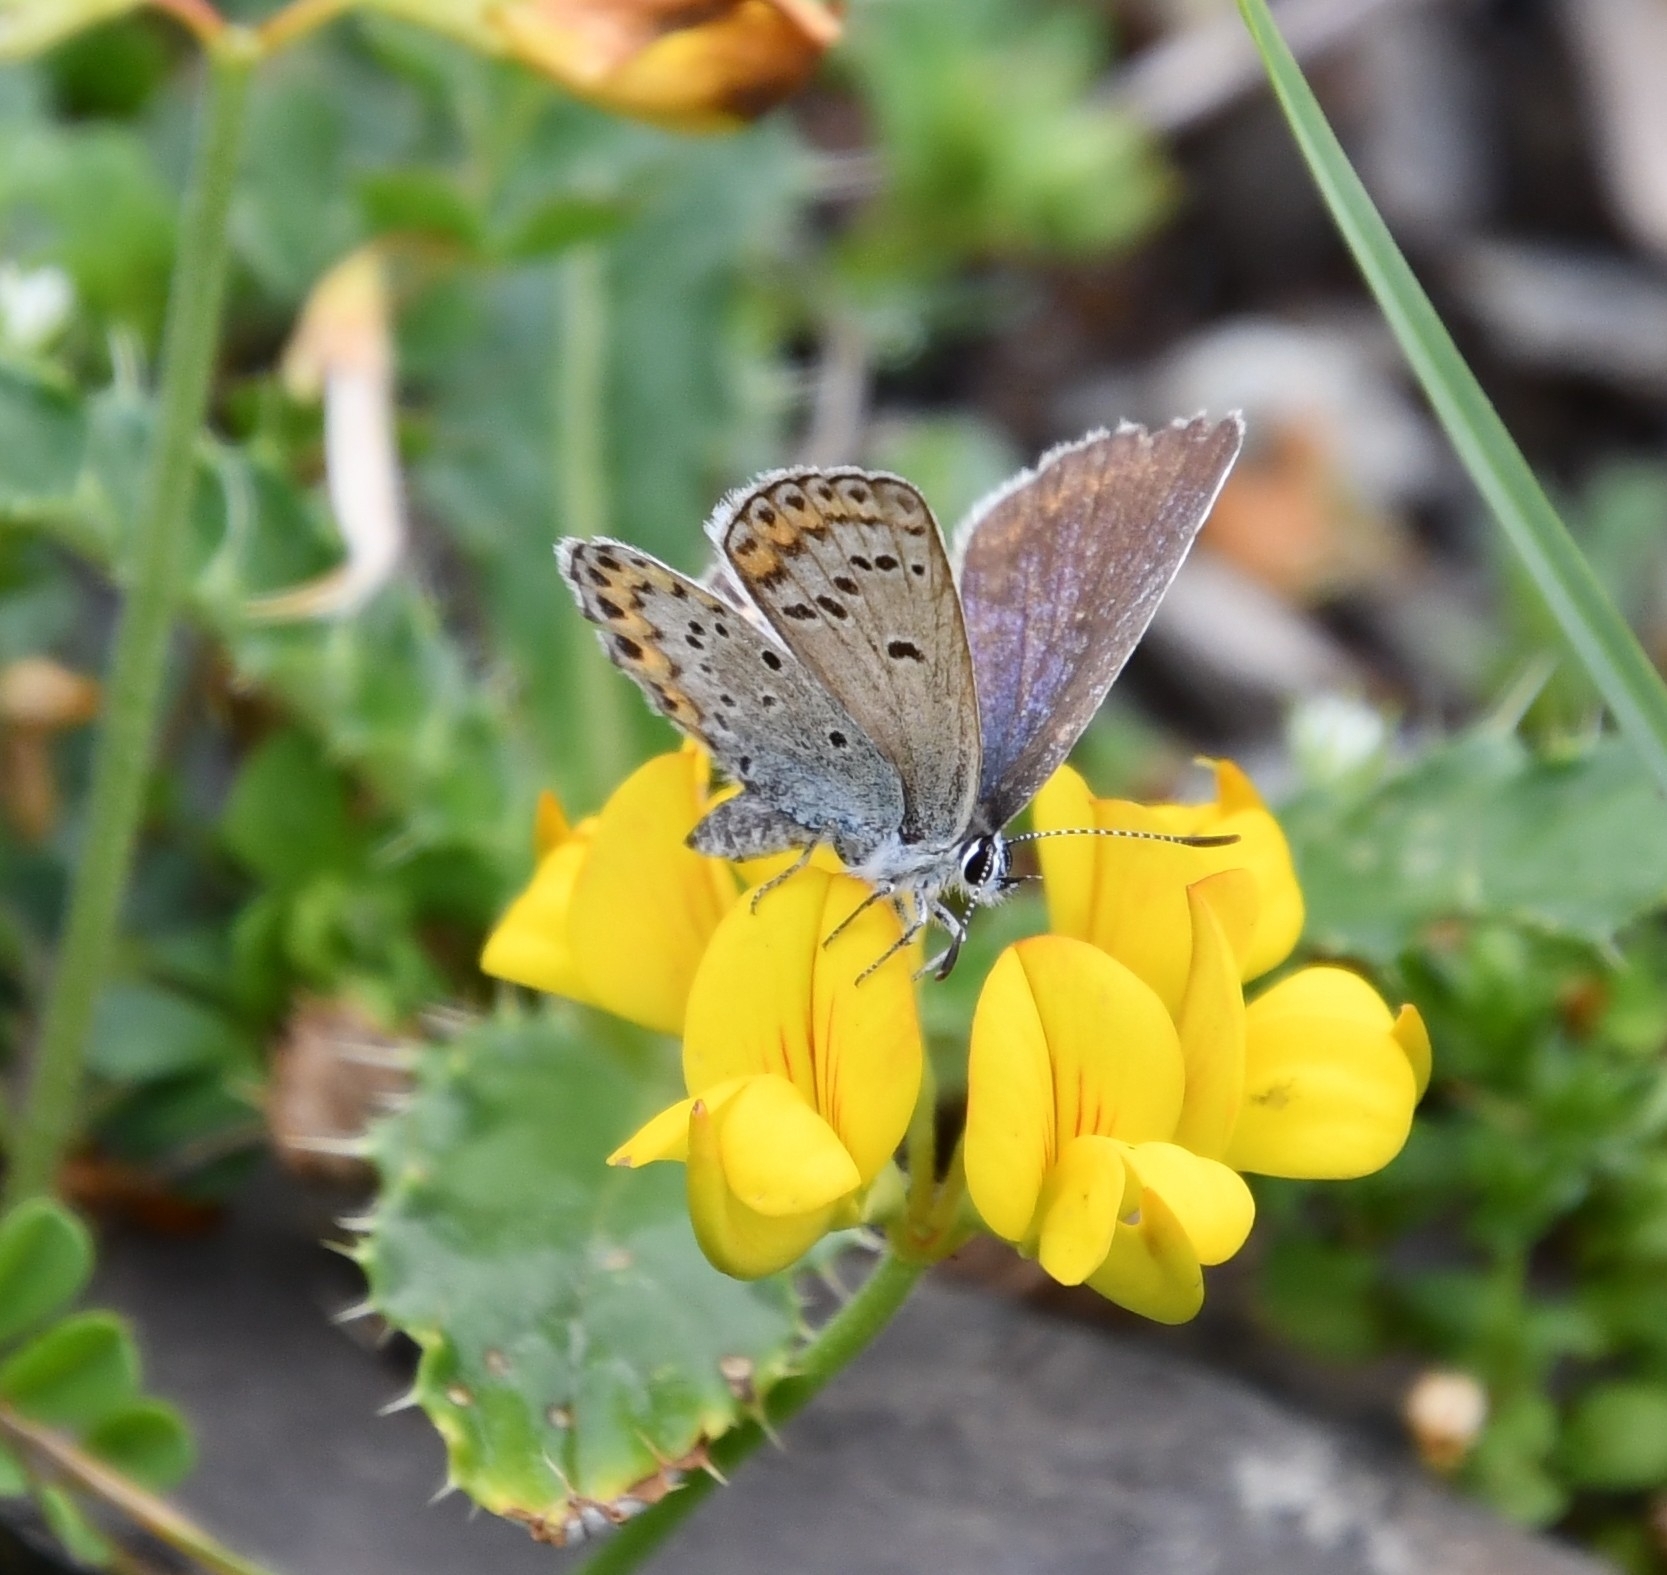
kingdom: Animalia
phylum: Arthropoda
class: Insecta
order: Lepidoptera
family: Lycaenidae
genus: Lycaeides
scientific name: Lycaeides idas
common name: Northern blue
